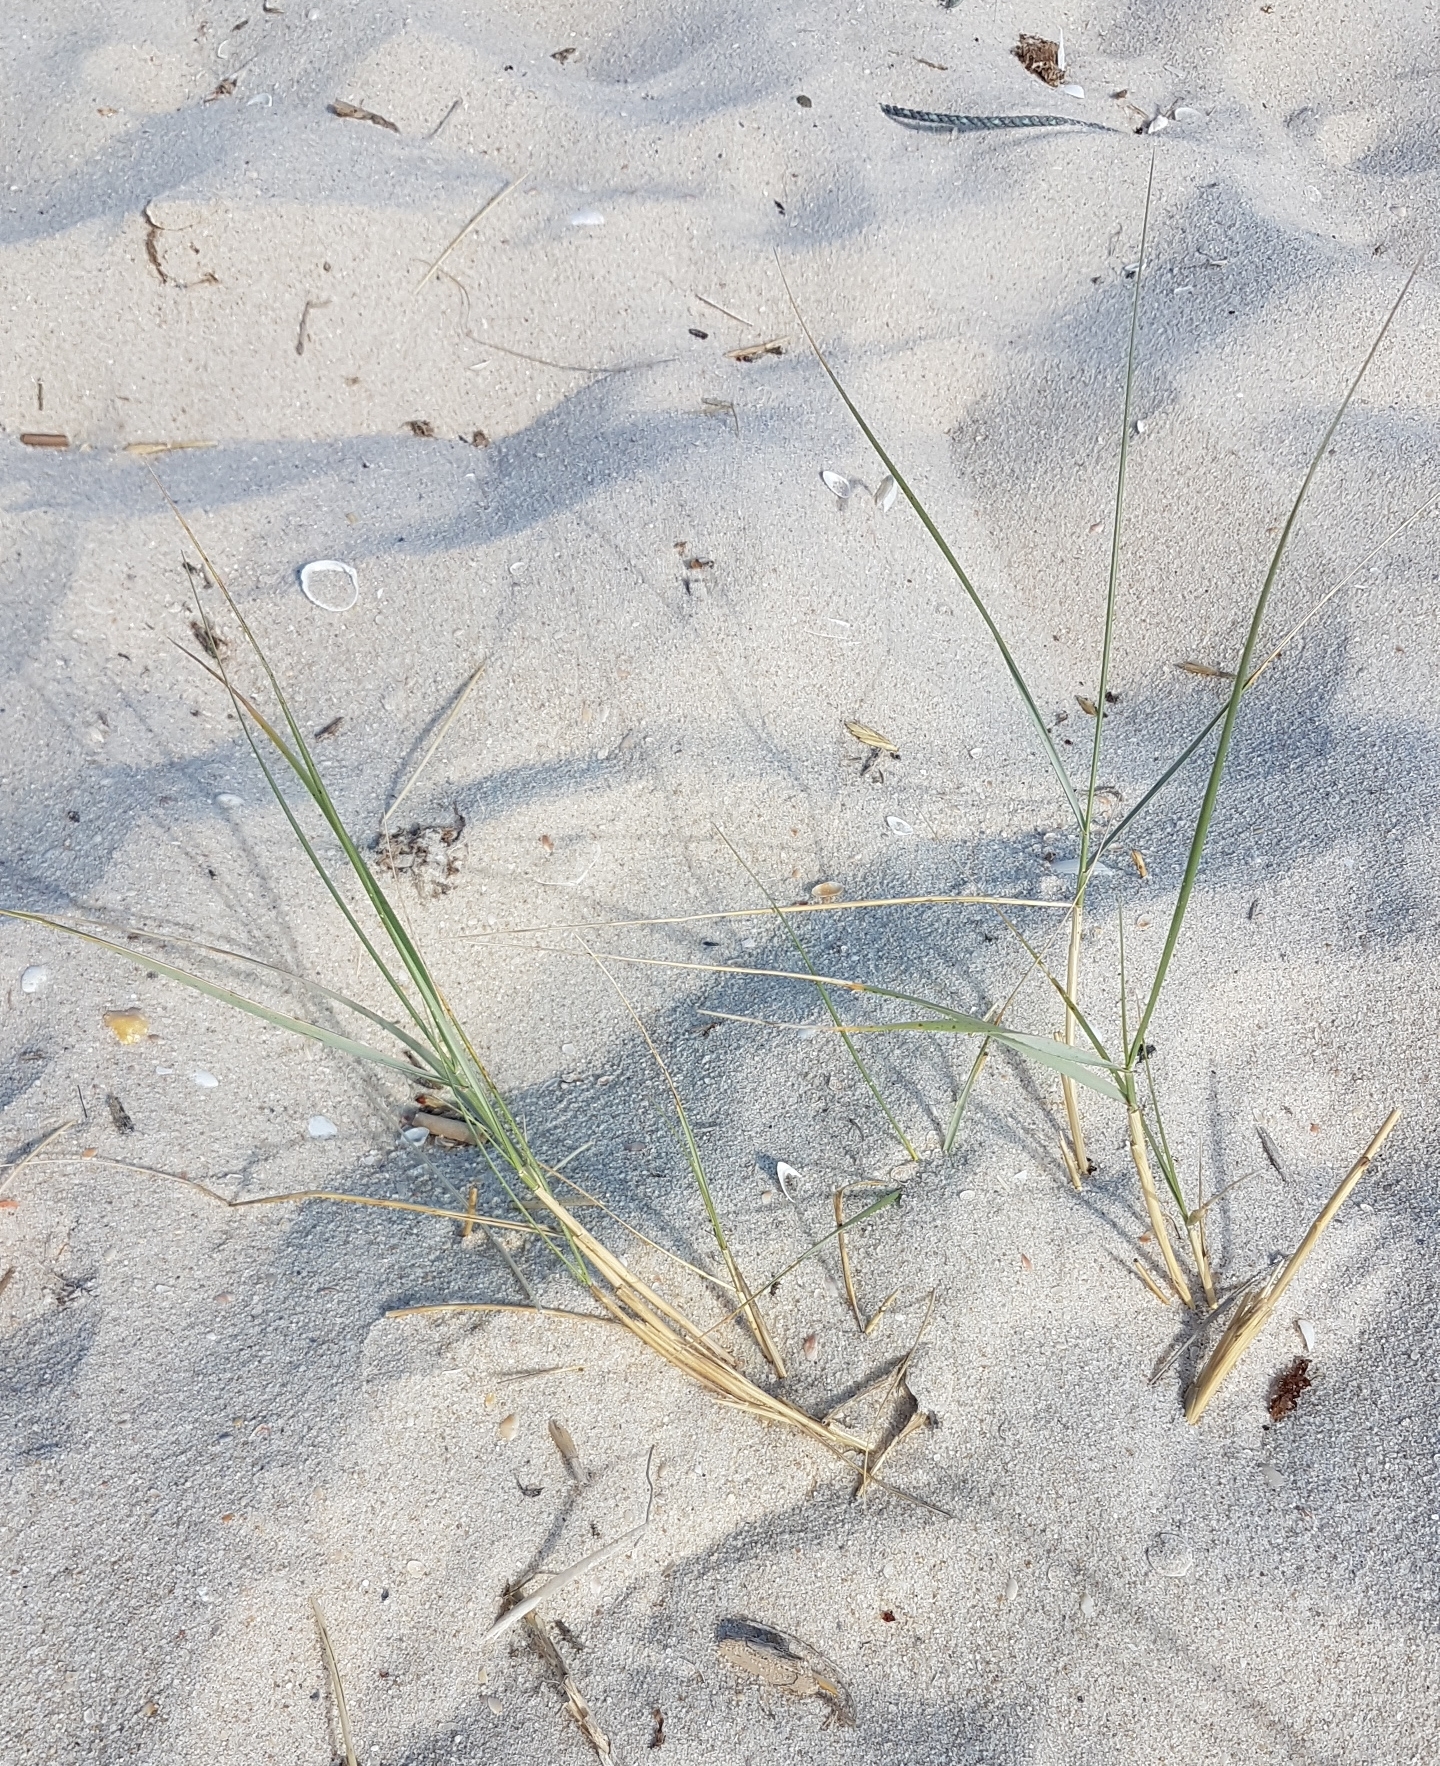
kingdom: Plantae
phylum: Tracheophyta
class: Liliopsida
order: Poales
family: Poaceae
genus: Calamagrostis
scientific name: Calamagrostis arenaria
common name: European beachgrass
